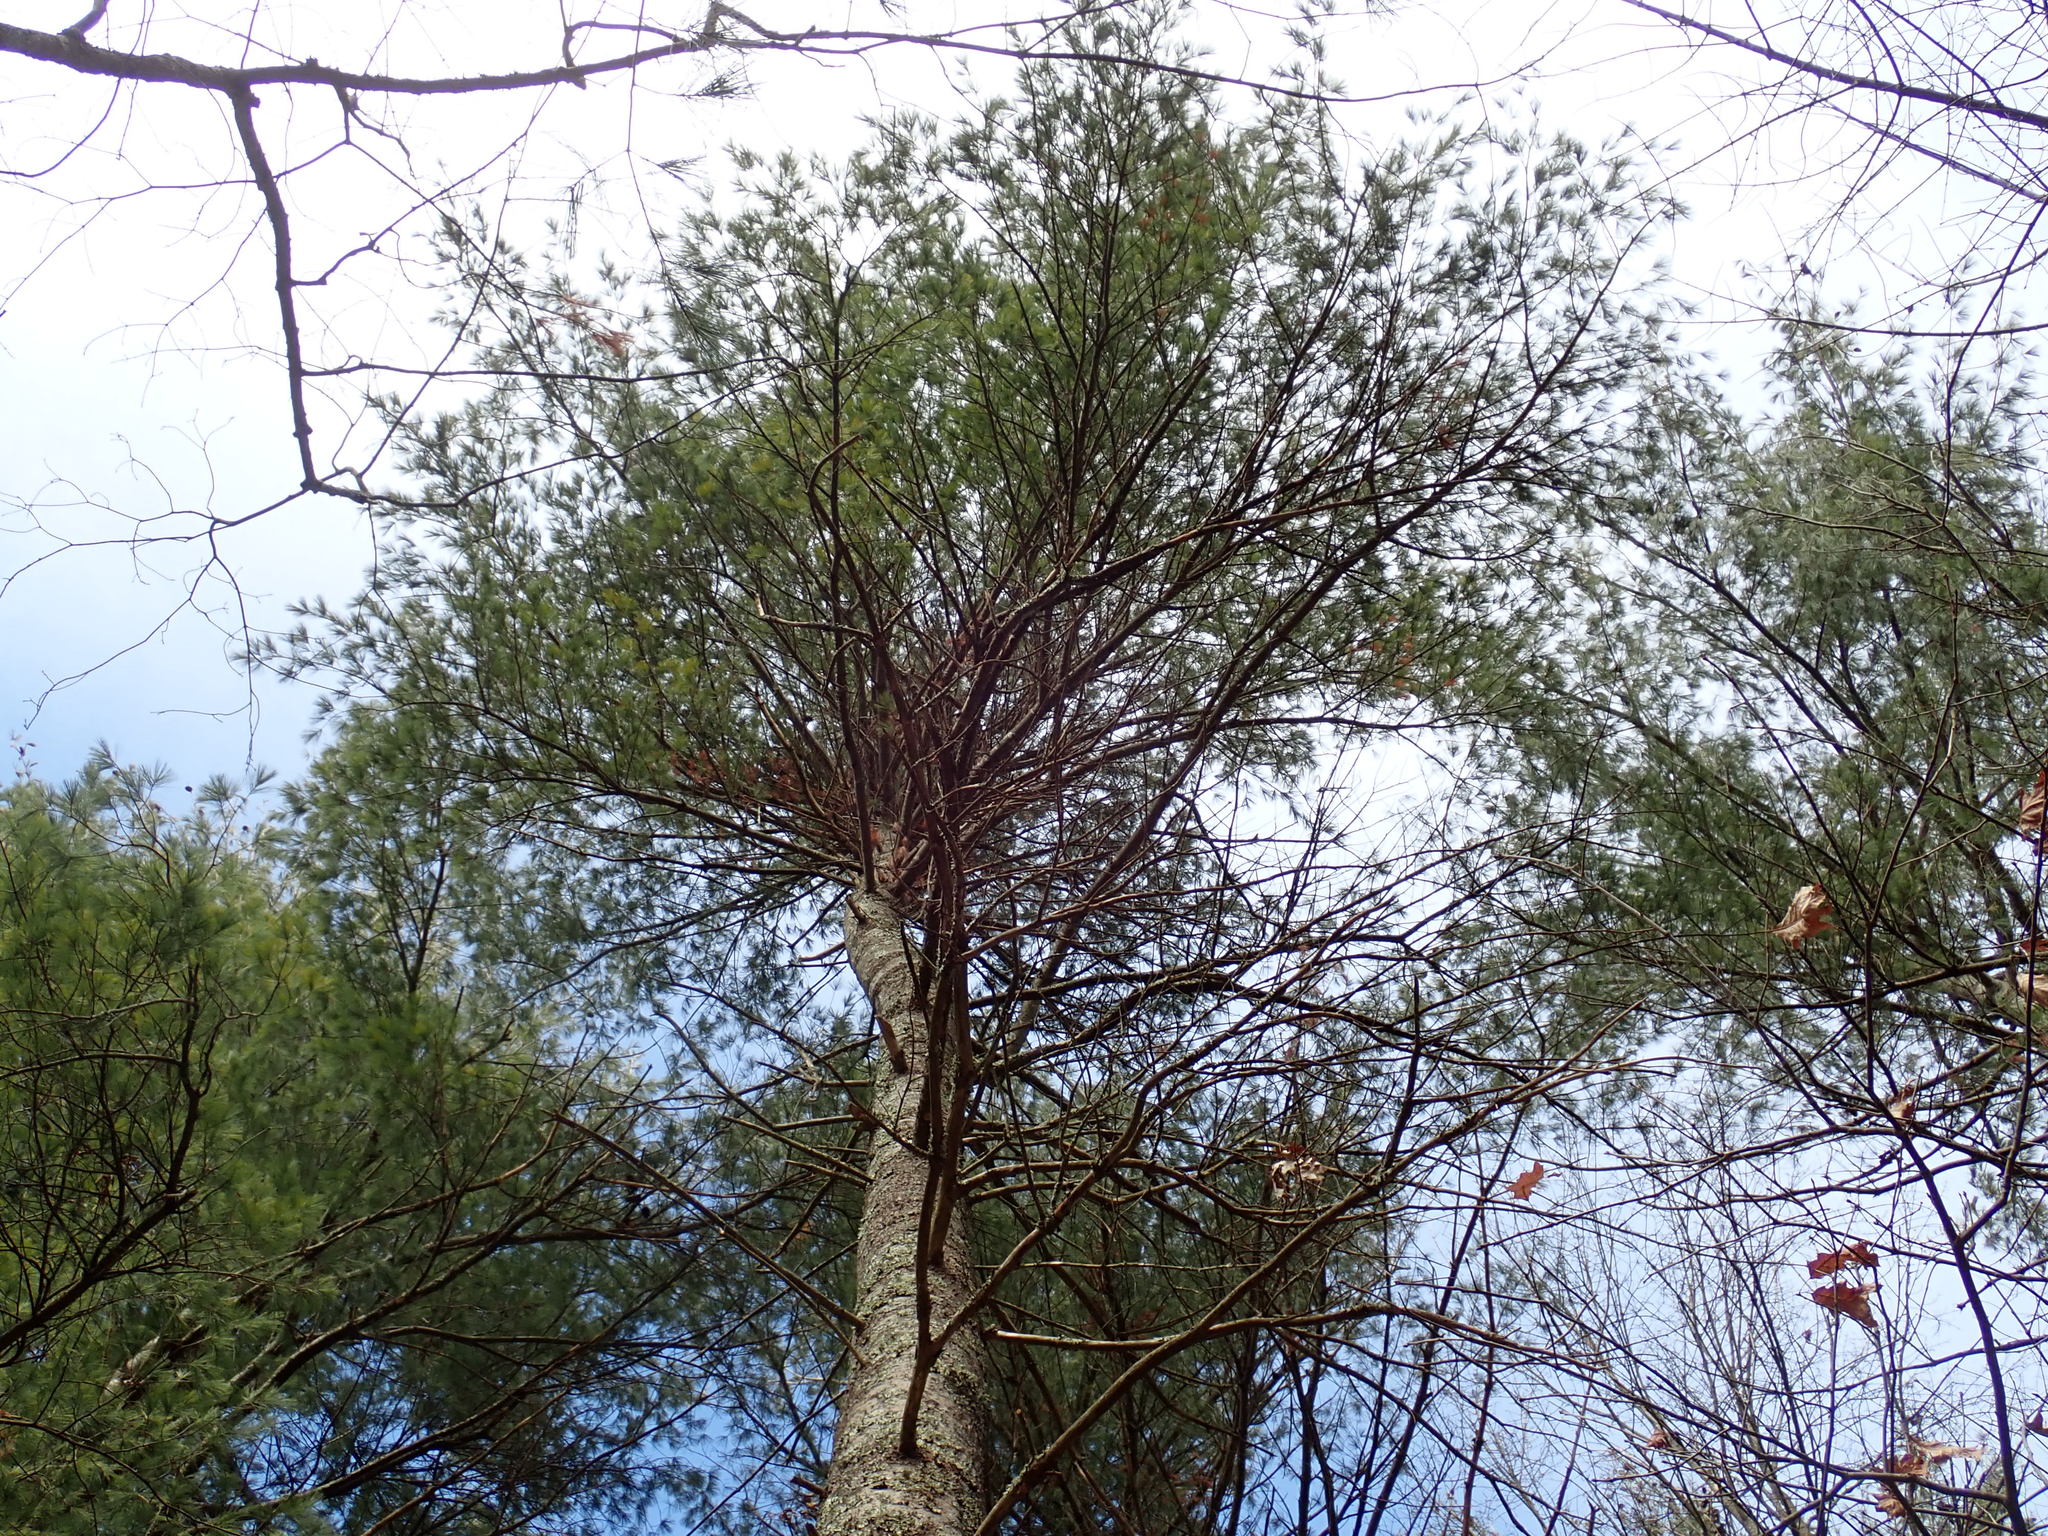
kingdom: Plantae
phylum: Tracheophyta
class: Pinopsida
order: Pinales
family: Pinaceae
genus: Pinus
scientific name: Pinus strobus
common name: Weymouth pine
